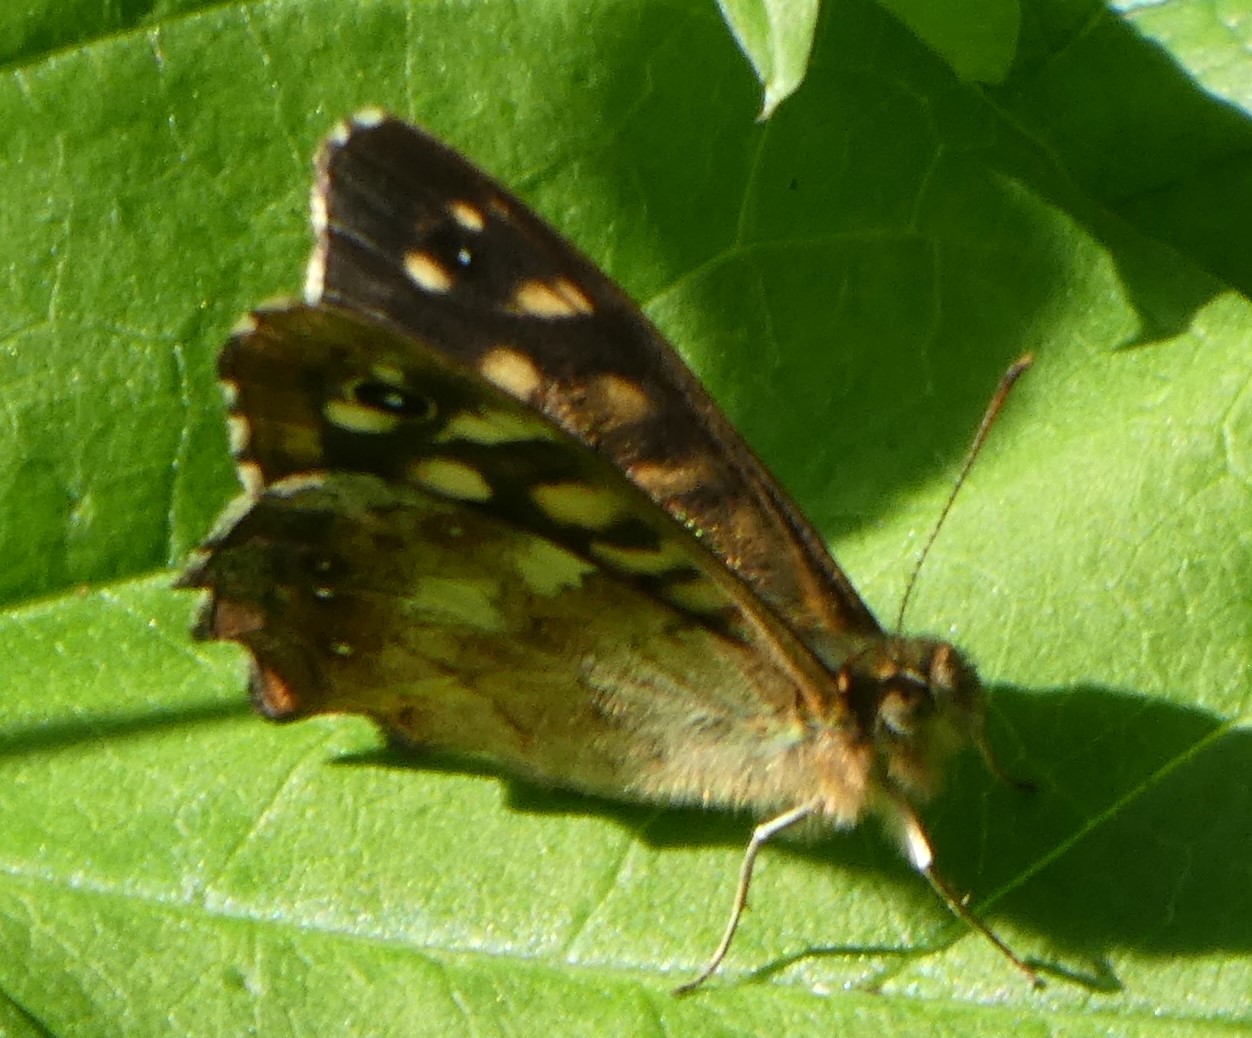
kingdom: Animalia
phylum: Arthropoda
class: Insecta
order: Lepidoptera
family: Nymphalidae
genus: Pararge
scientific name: Pararge aegeria
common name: Speckled wood
